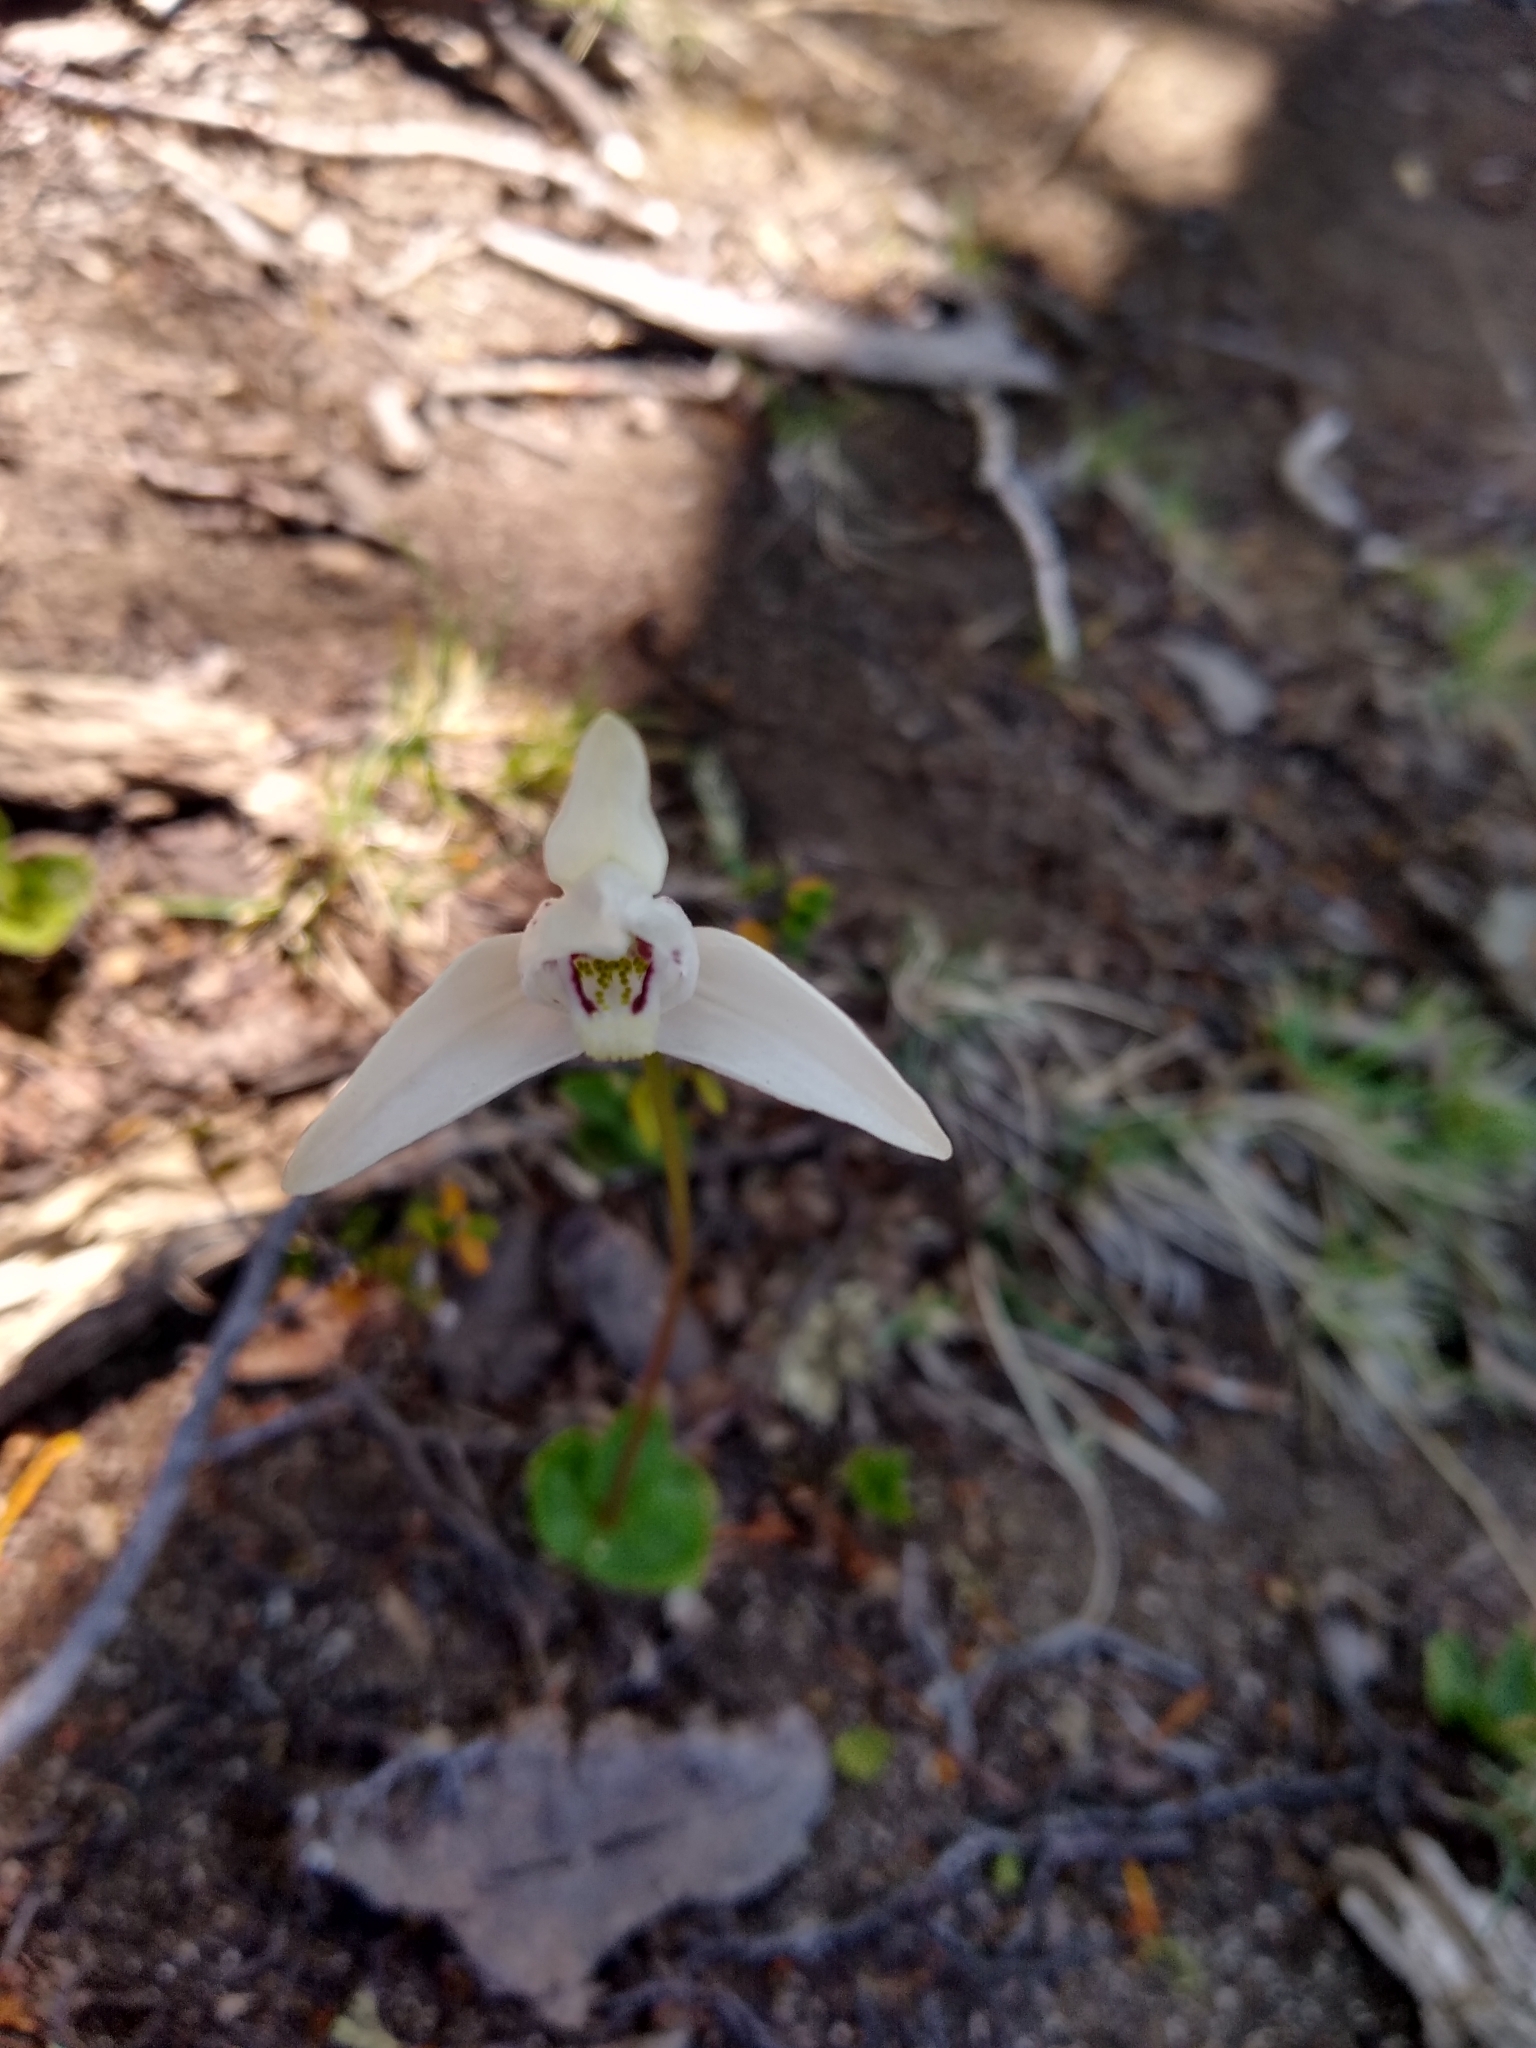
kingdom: Plantae
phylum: Tracheophyta
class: Liliopsida
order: Asparagales
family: Orchidaceae
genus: Codonorchis
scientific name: Codonorchis lessonii
